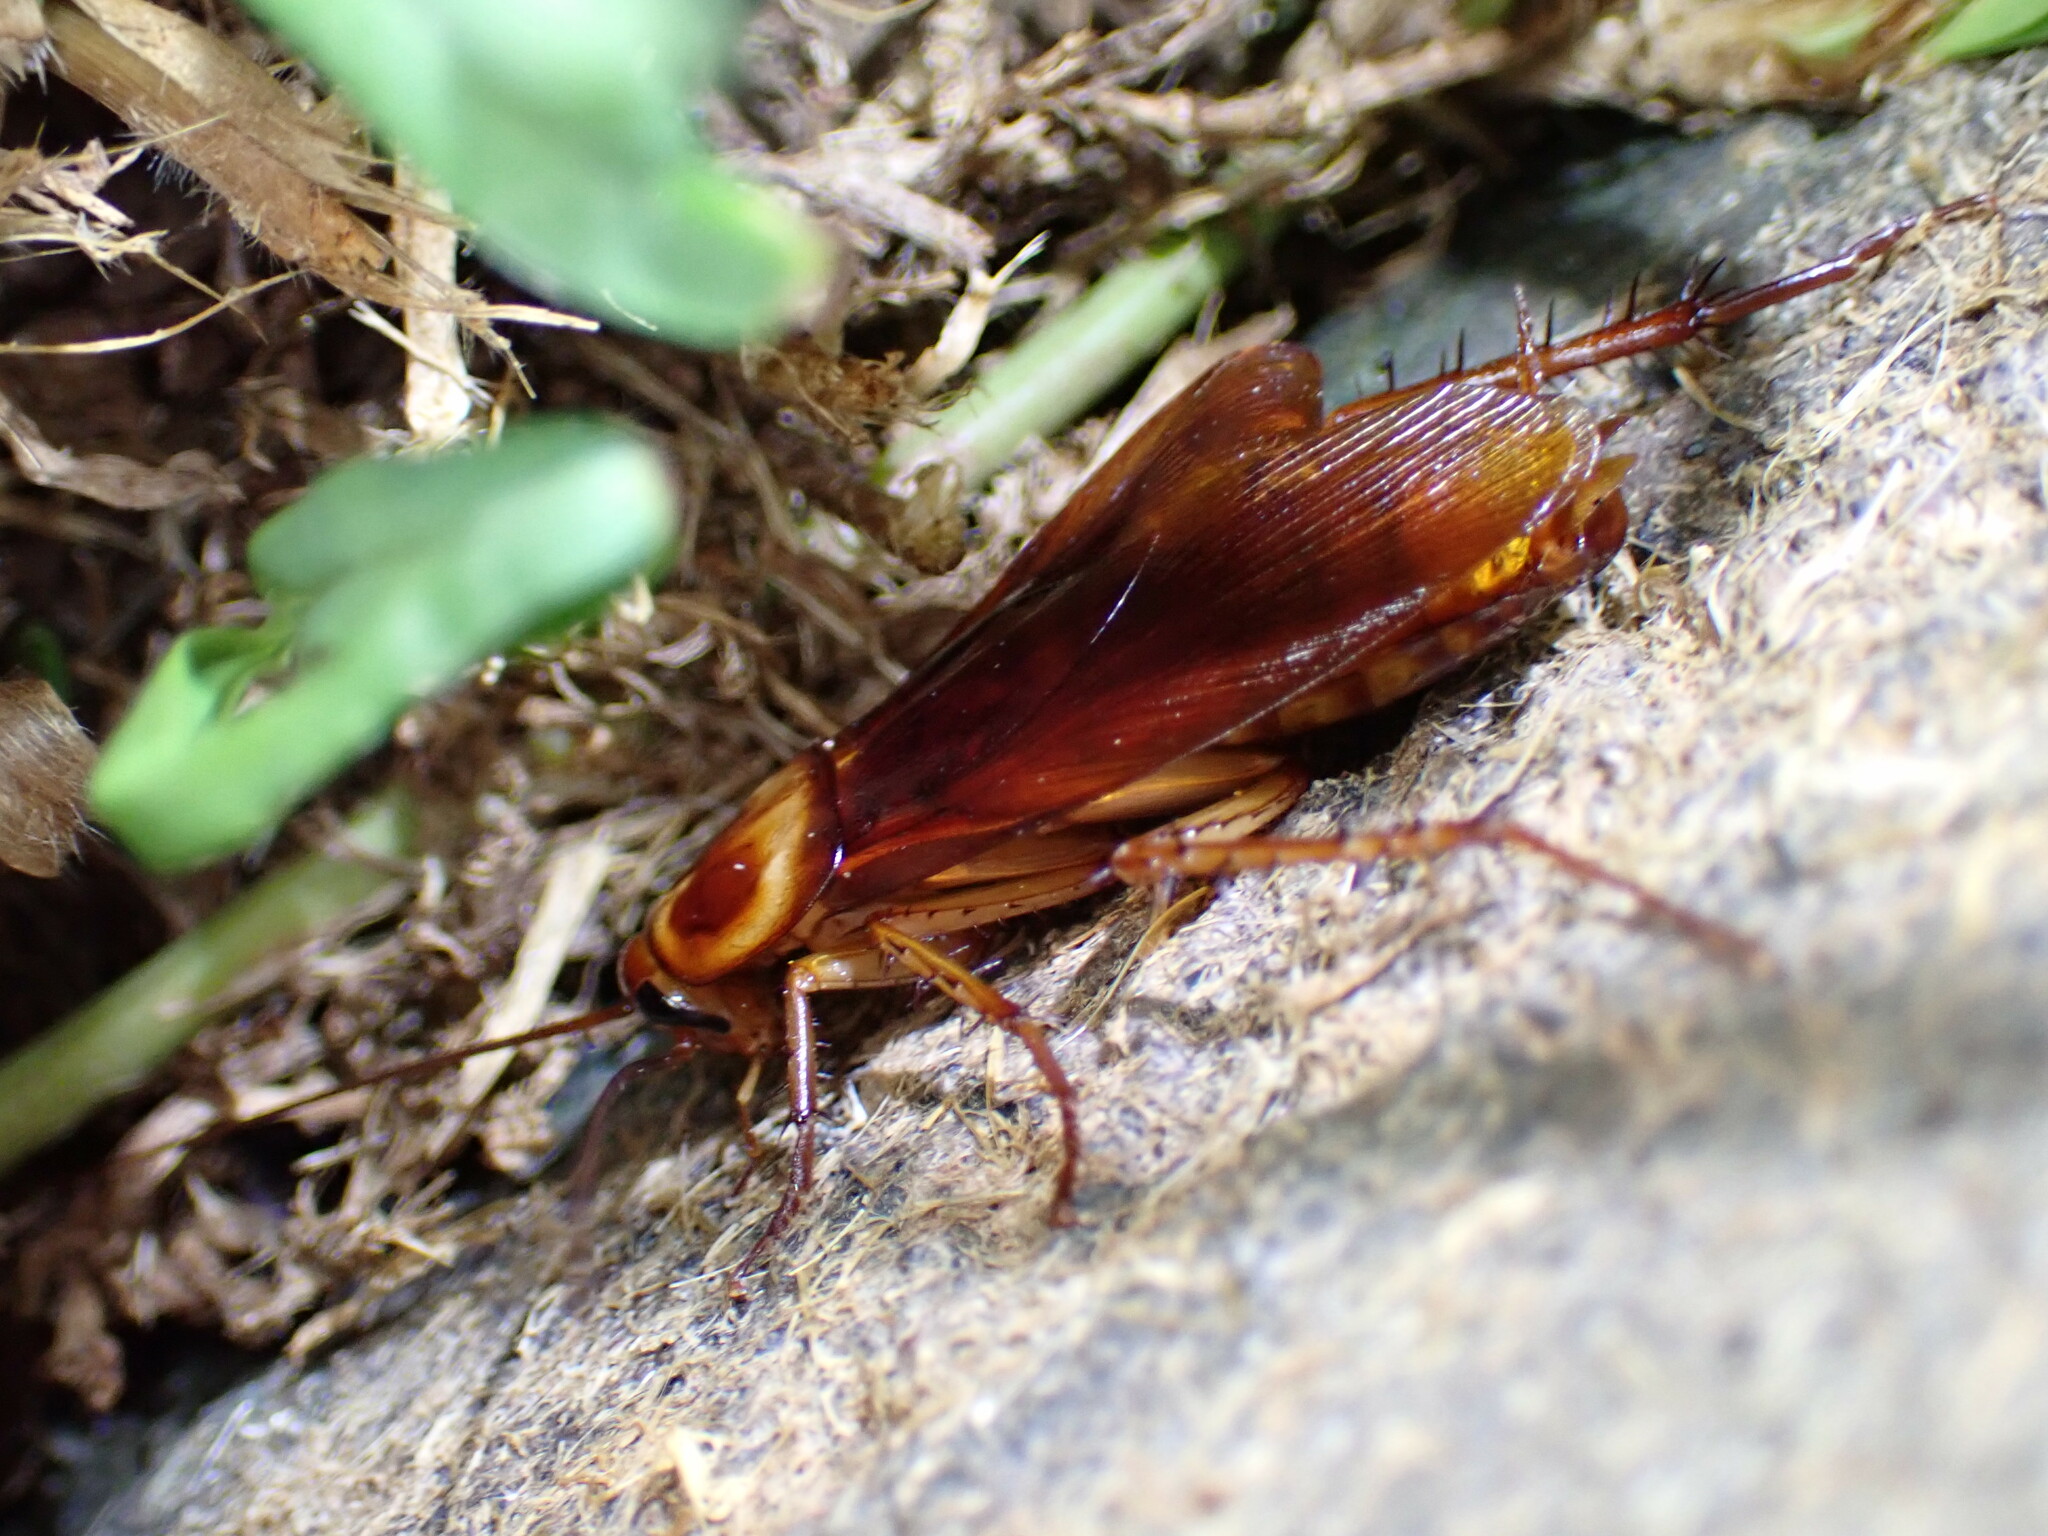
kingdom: Animalia
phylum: Arthropoda
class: Insecta
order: Blattodea
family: Blattidae
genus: Periplaneta
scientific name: Periplaneta americana
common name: American cockroach
